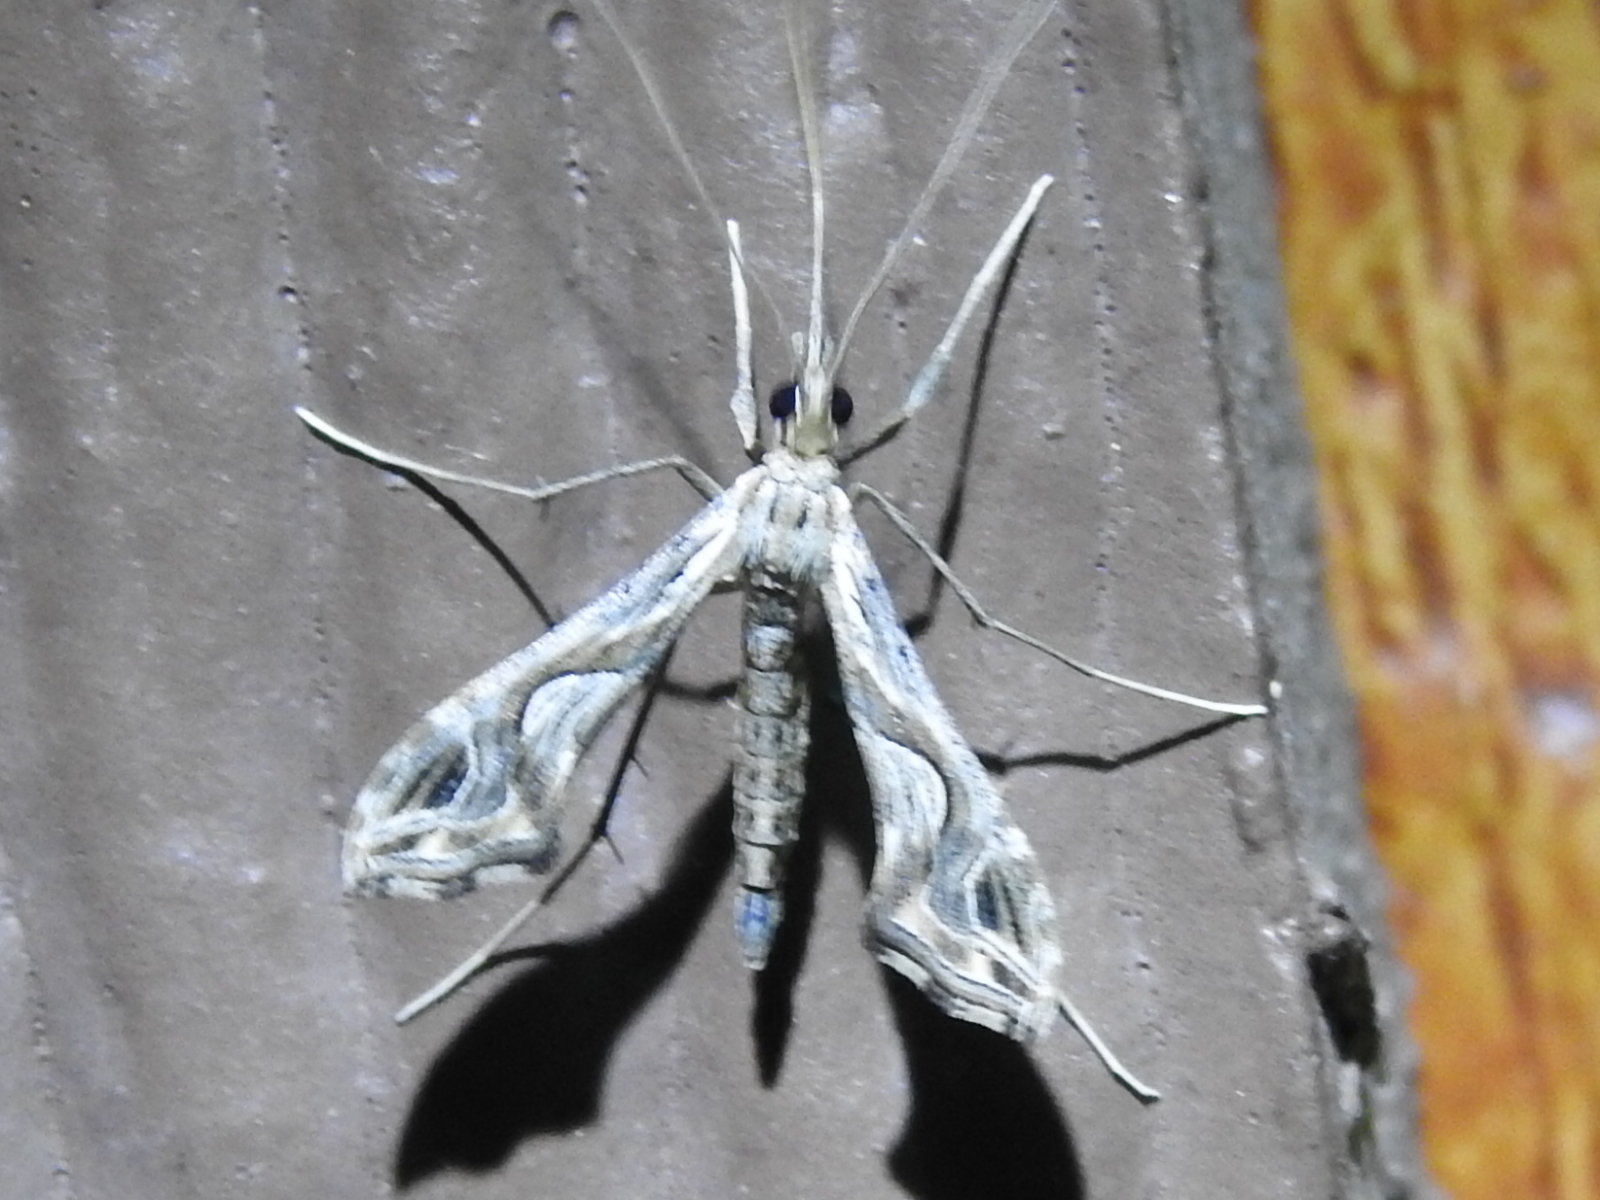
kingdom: Animalia
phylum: Arthropoda
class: Insecta
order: Lepidoptera
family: Crambidae
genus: Lineodes
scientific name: Lineodes integra
